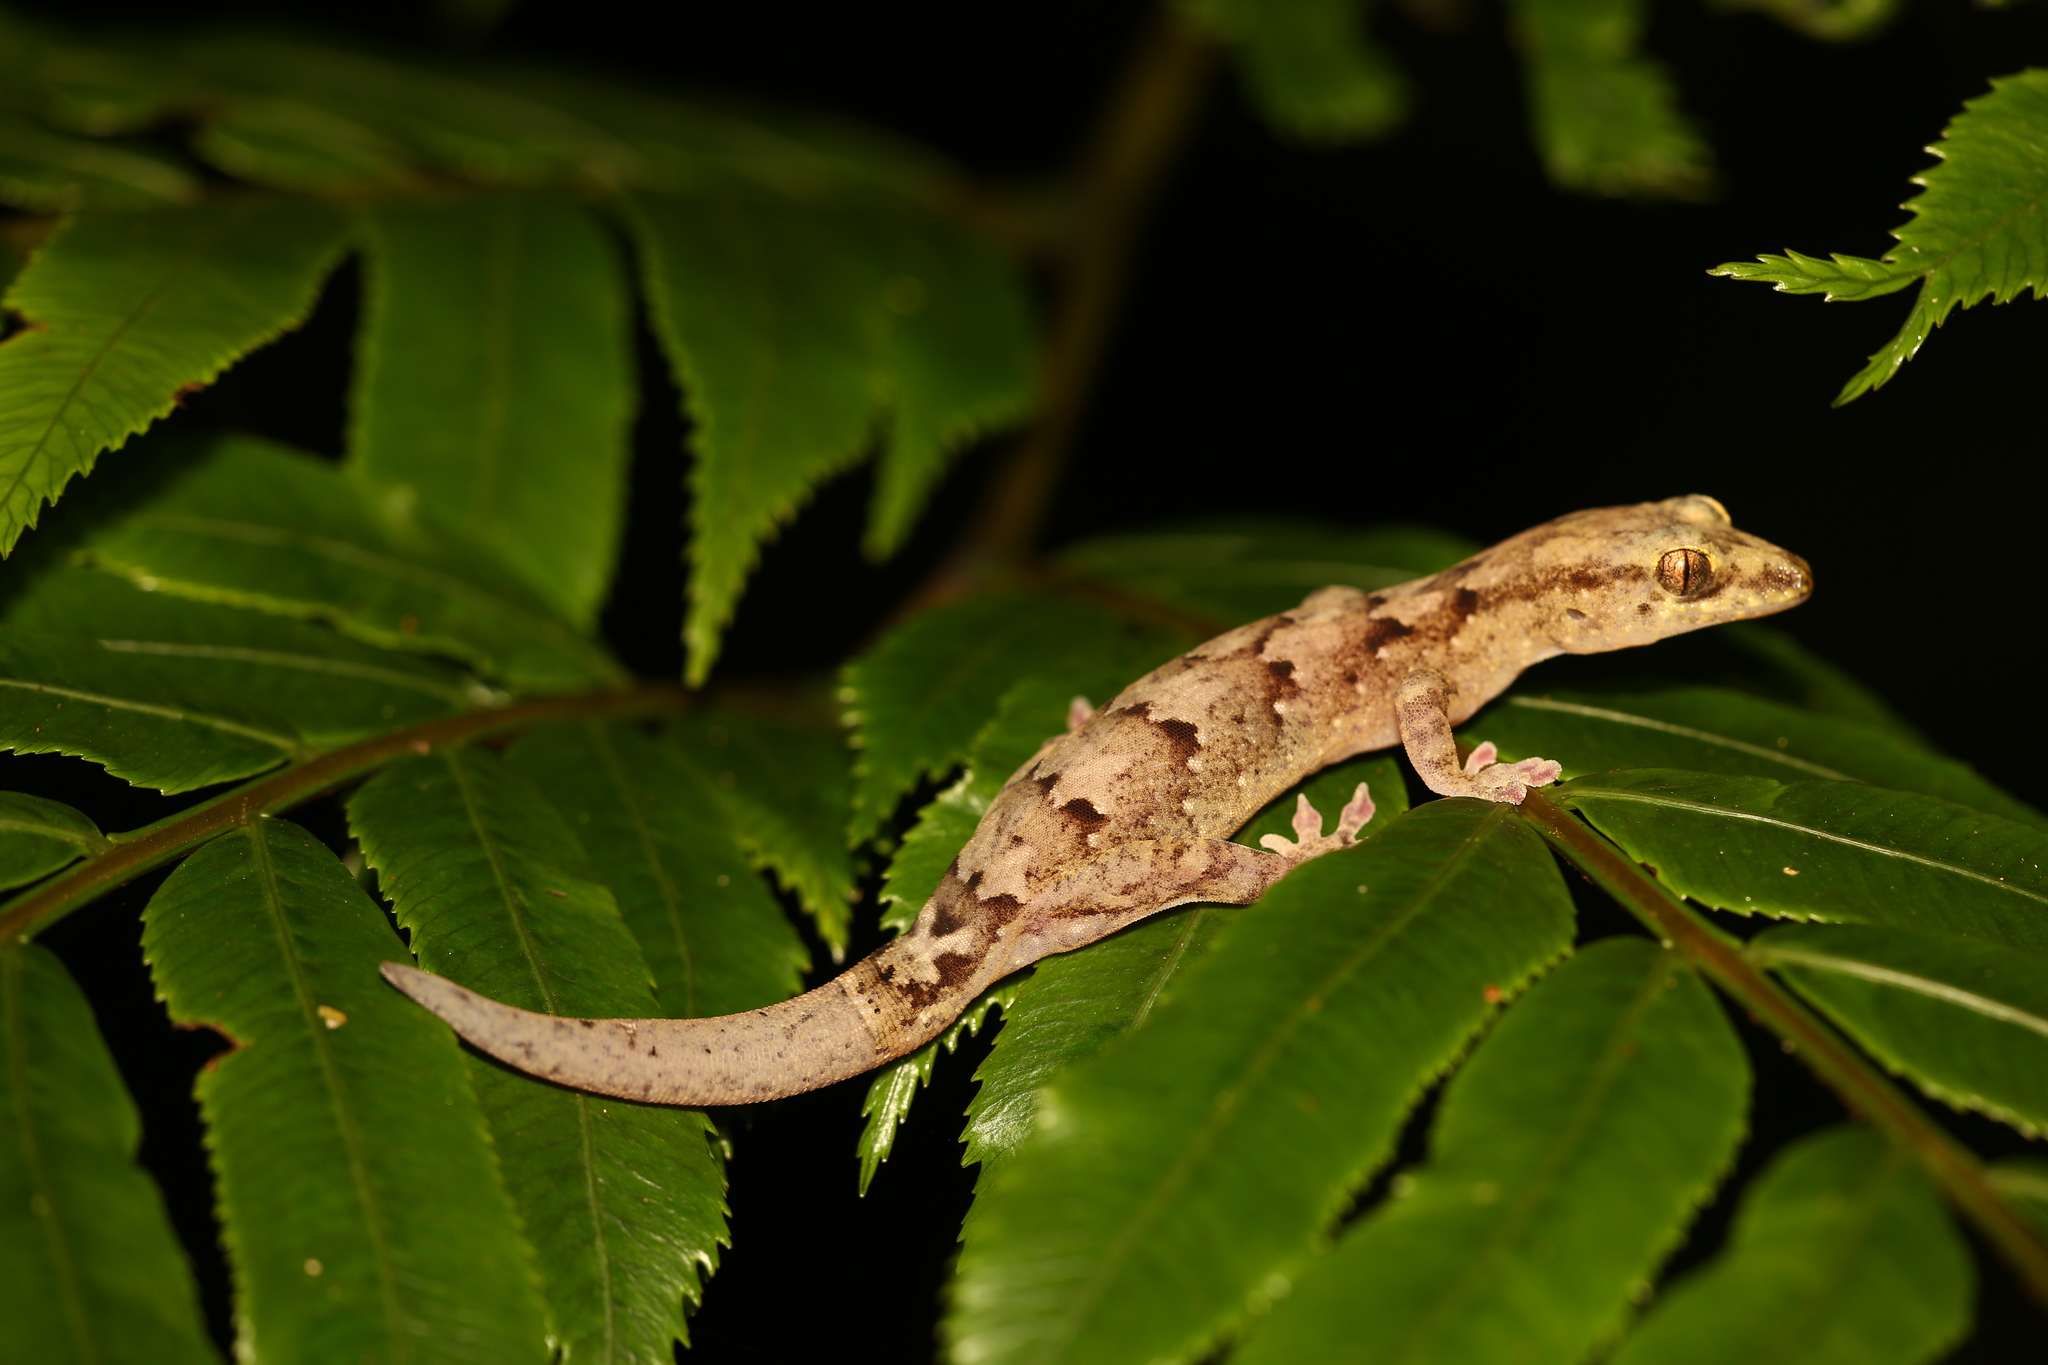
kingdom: Animalia
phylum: Chordata
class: Squamata
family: Diplodactylidae
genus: Bavayia
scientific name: Bavayia sauvagii
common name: Sauvage's new caledonian gecko
